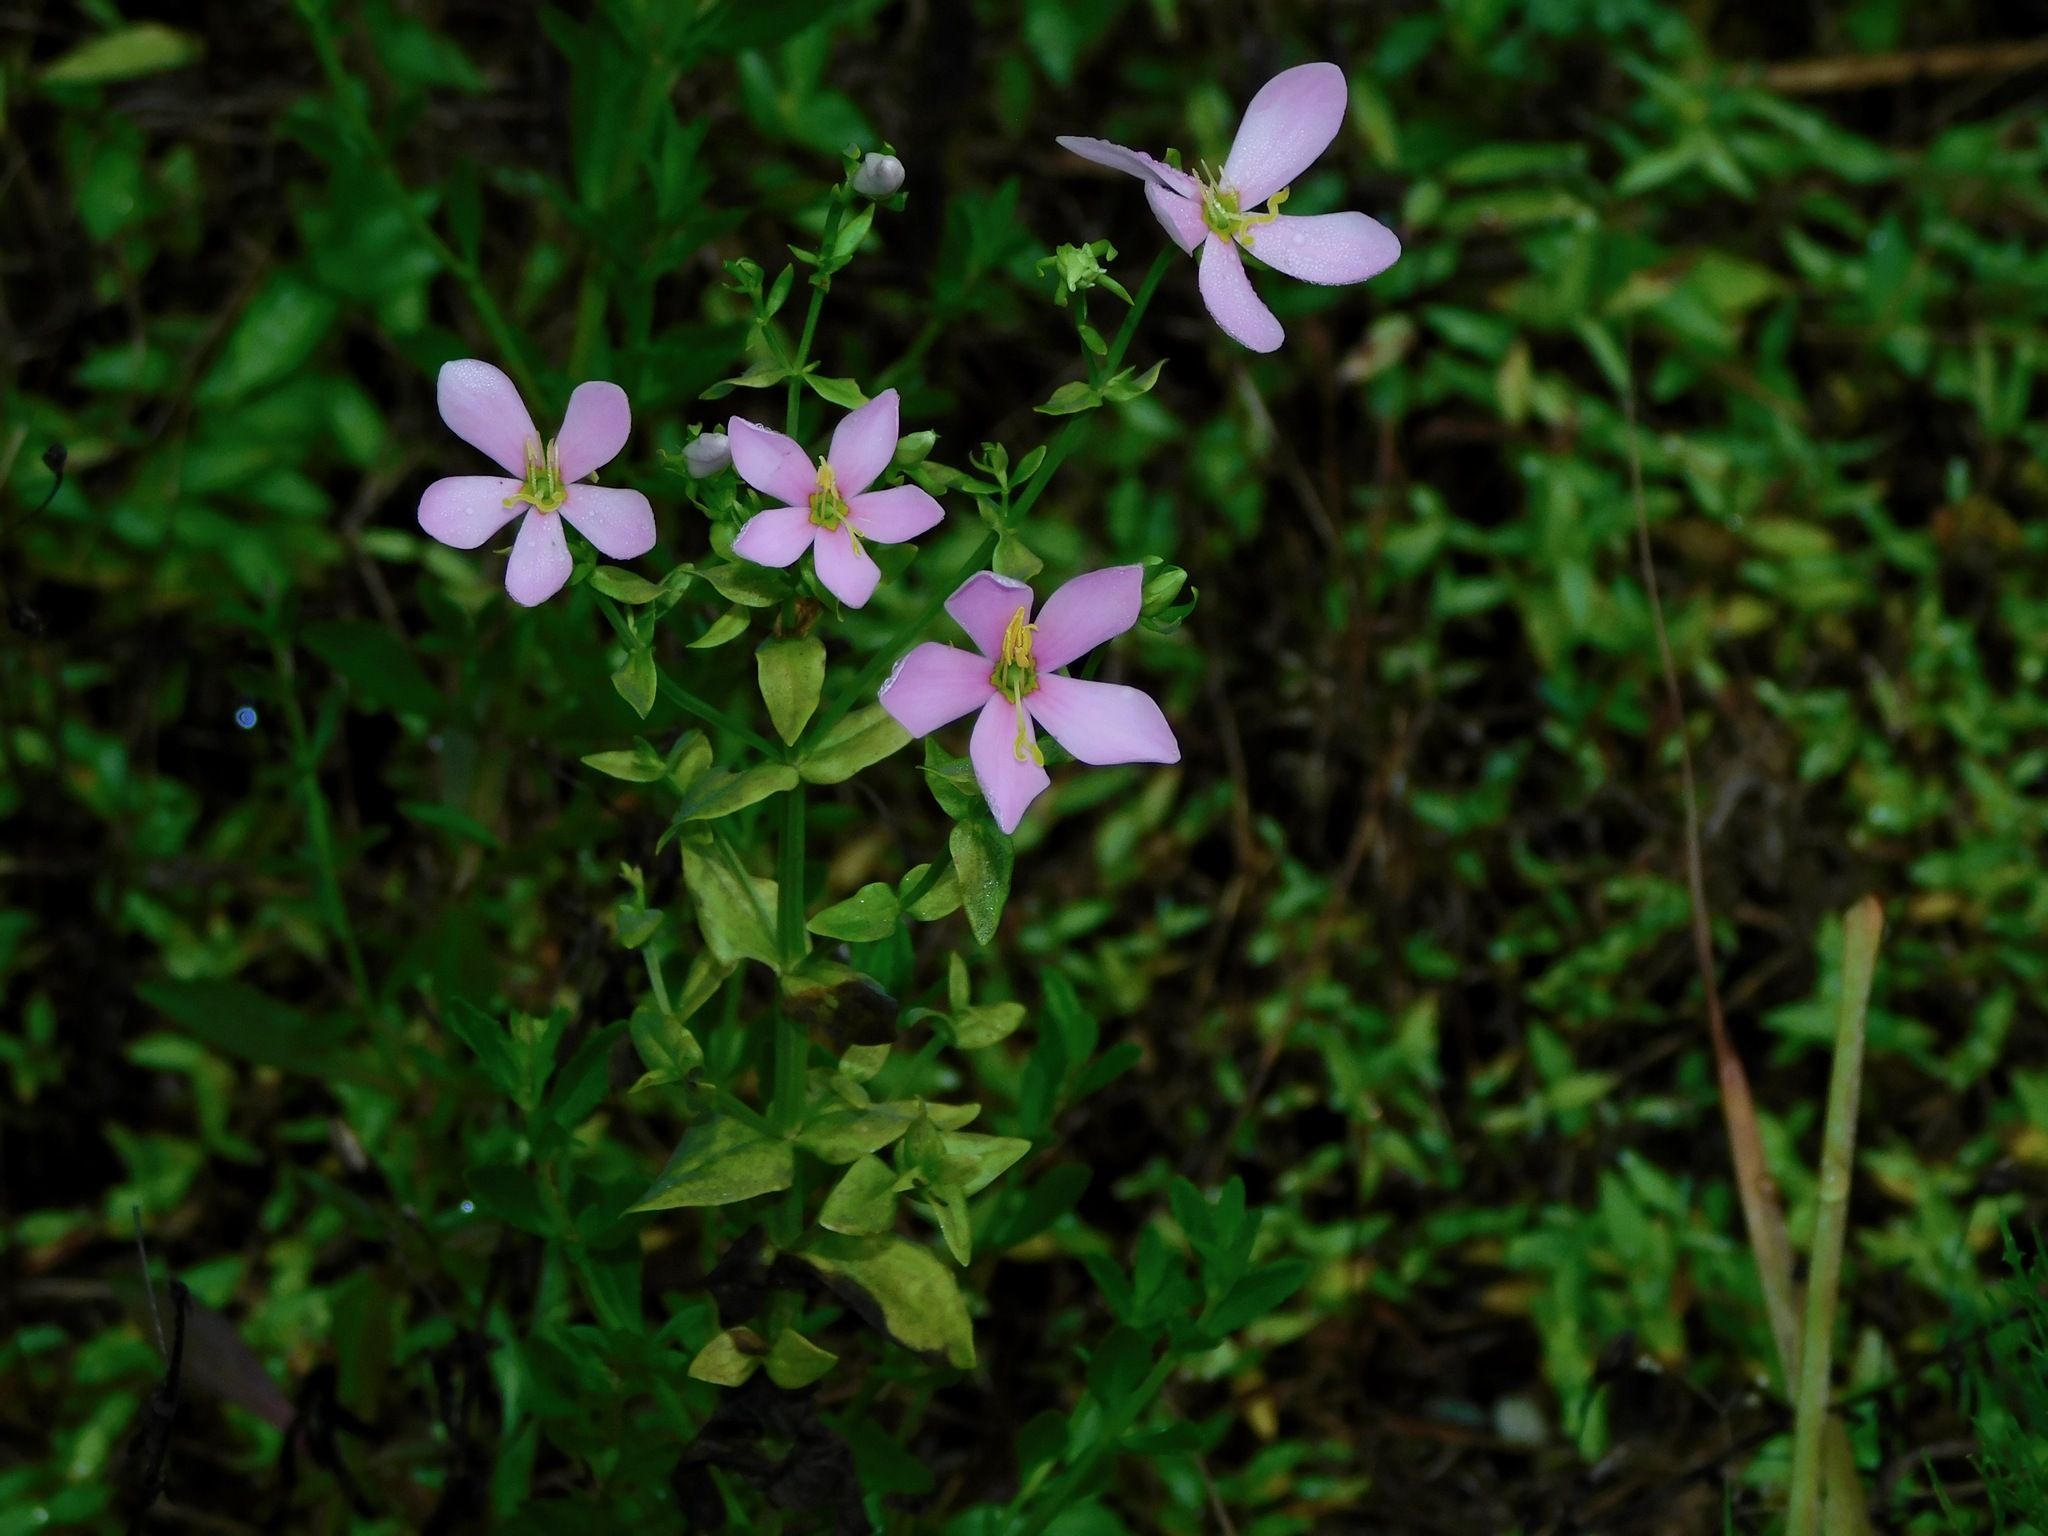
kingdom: Plantae
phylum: Tracheophyta
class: Magnoliopsida
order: Gentianales
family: Gentianaceae
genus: Sabatia
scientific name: Sabatia angularis
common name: Rose-pink
